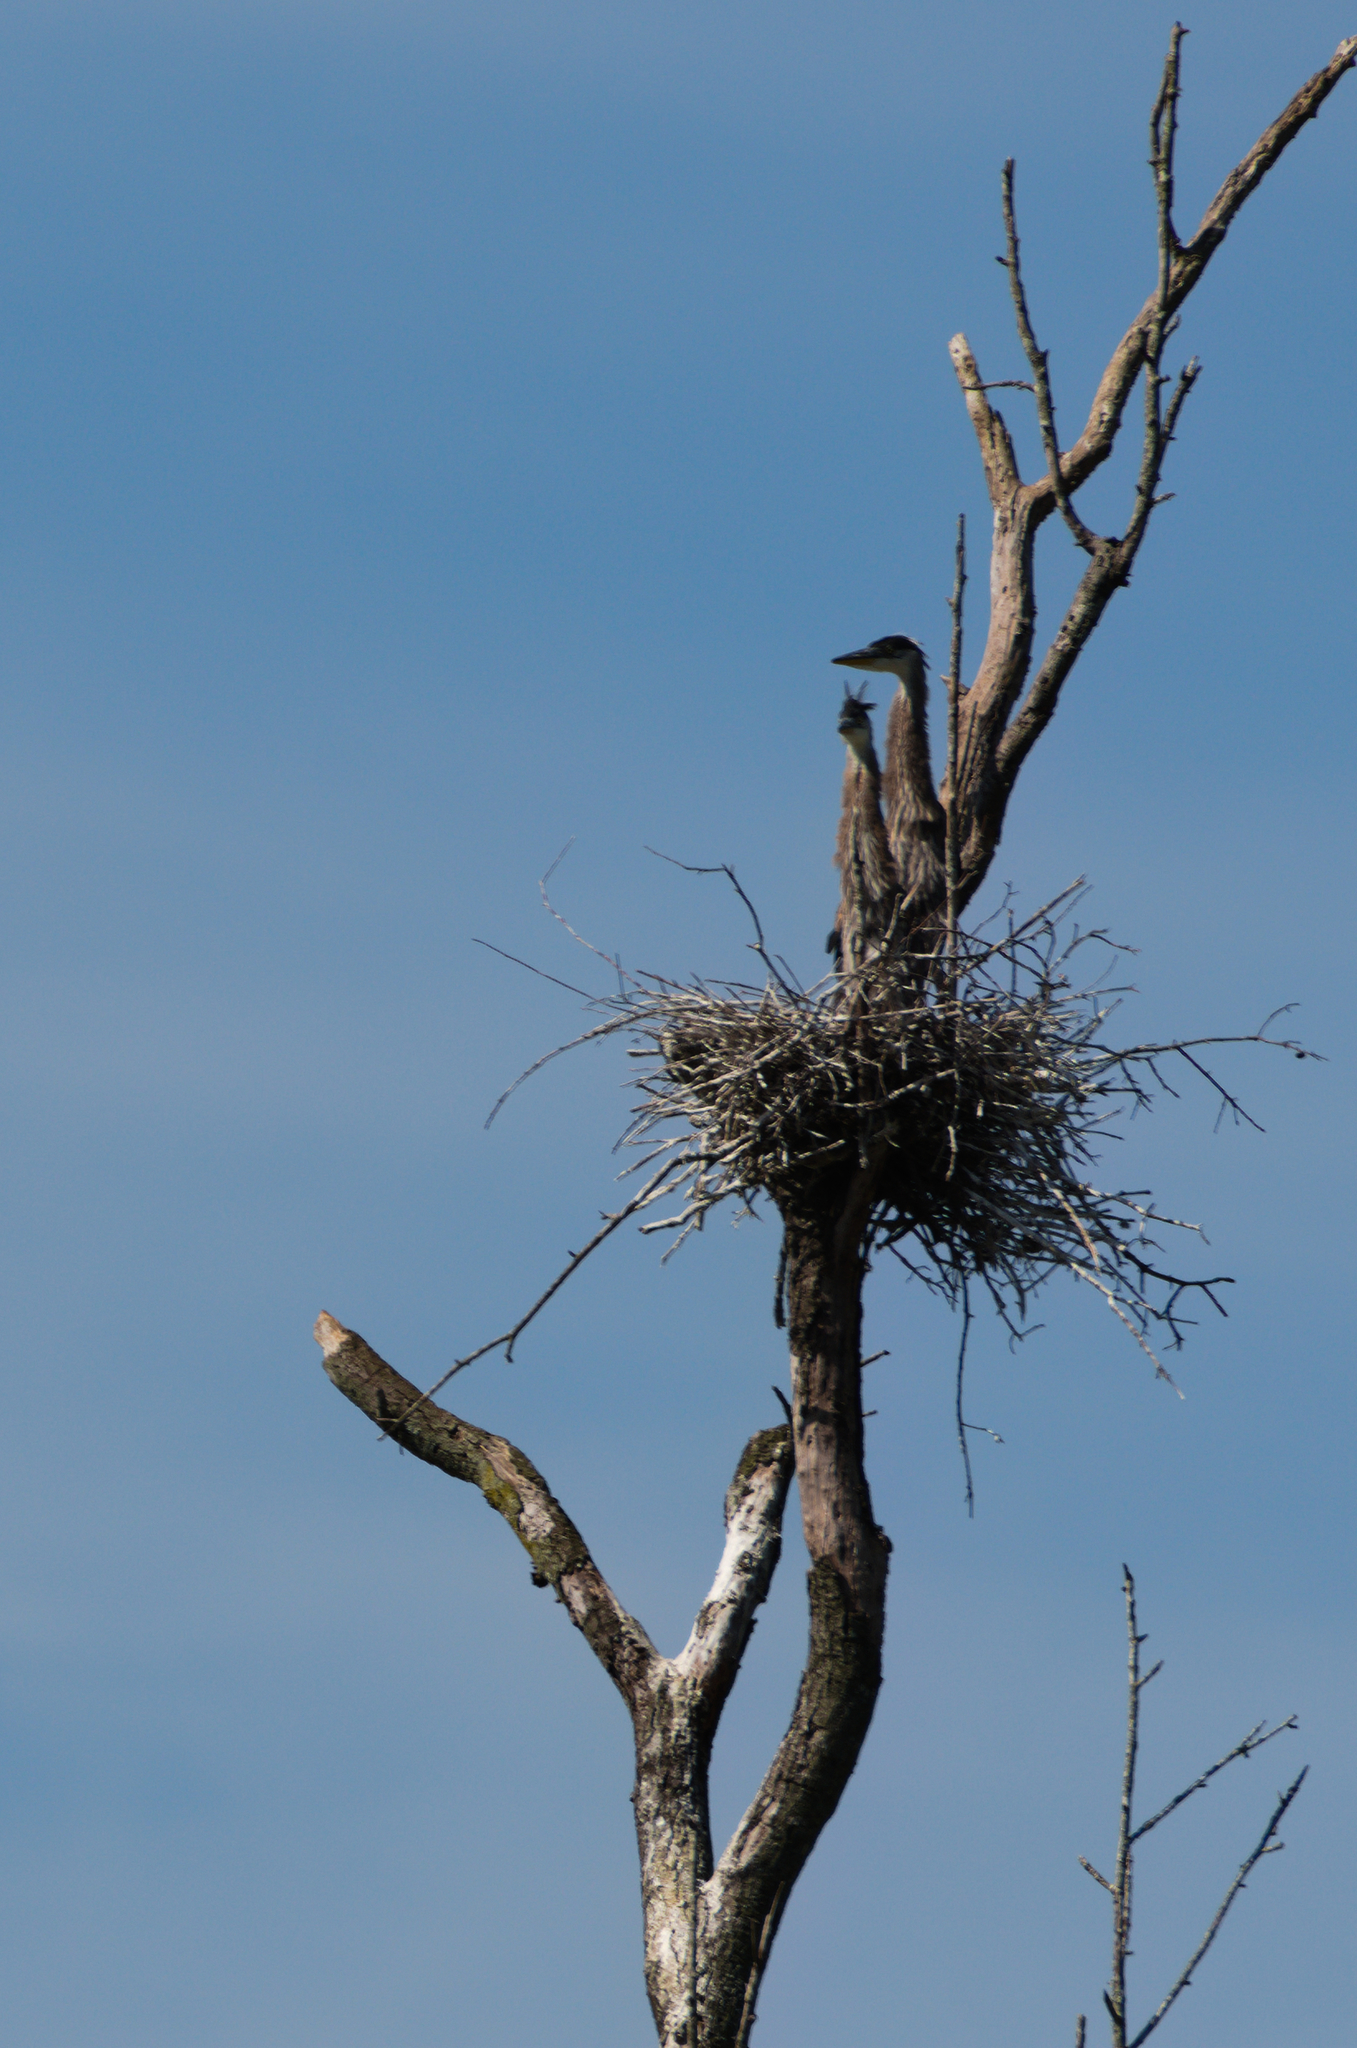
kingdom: Animalia
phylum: Chordata
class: Aves
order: Pelecaniformes
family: Ardeidae
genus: Ardea
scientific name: Ardea herodias
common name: Great blue heron
